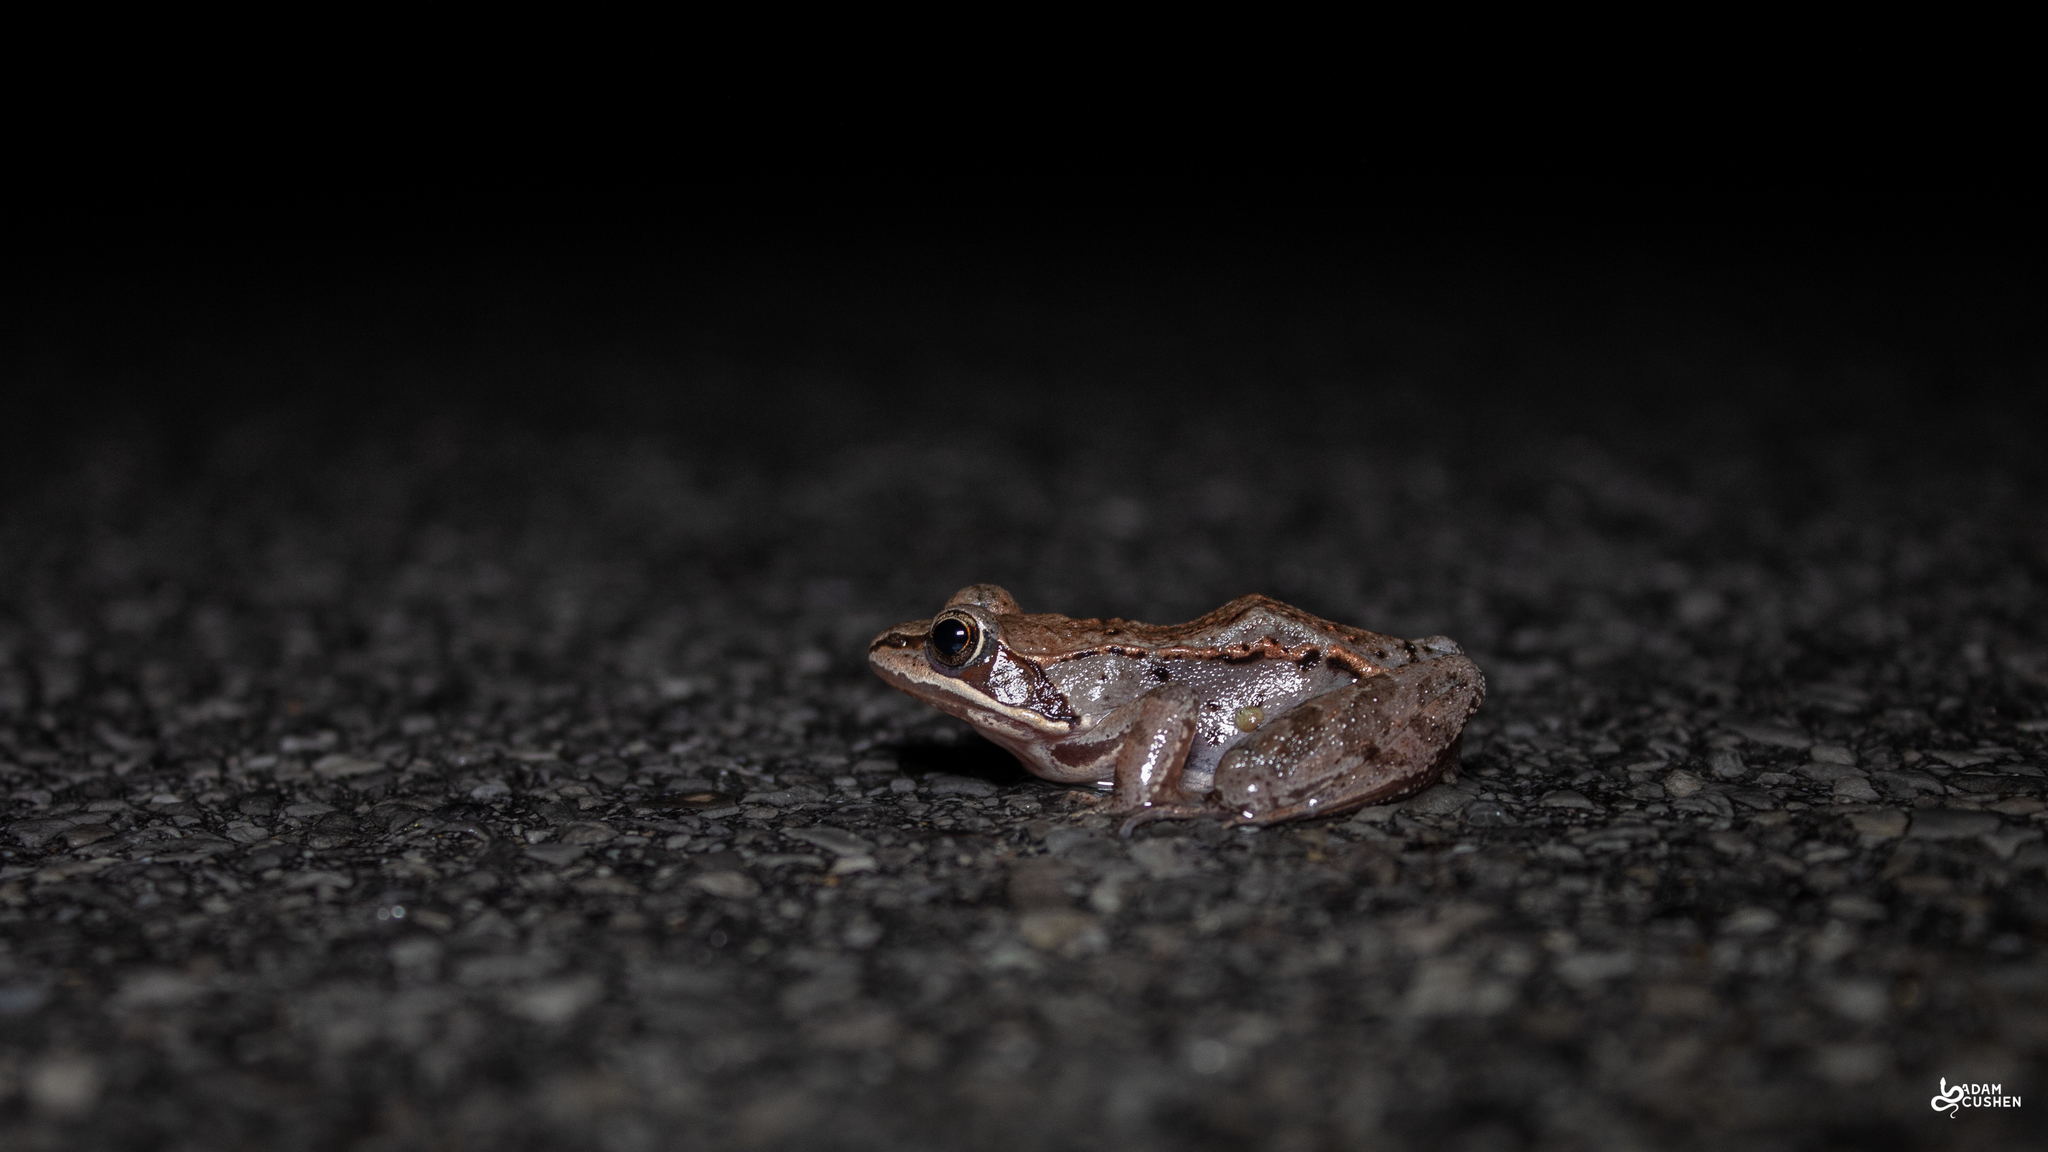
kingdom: Animalia
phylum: Chordata
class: Amphibia
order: Anura
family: Ranidae
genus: Lithobates
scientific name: Lithobates sylvaticus
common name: Wood frog
